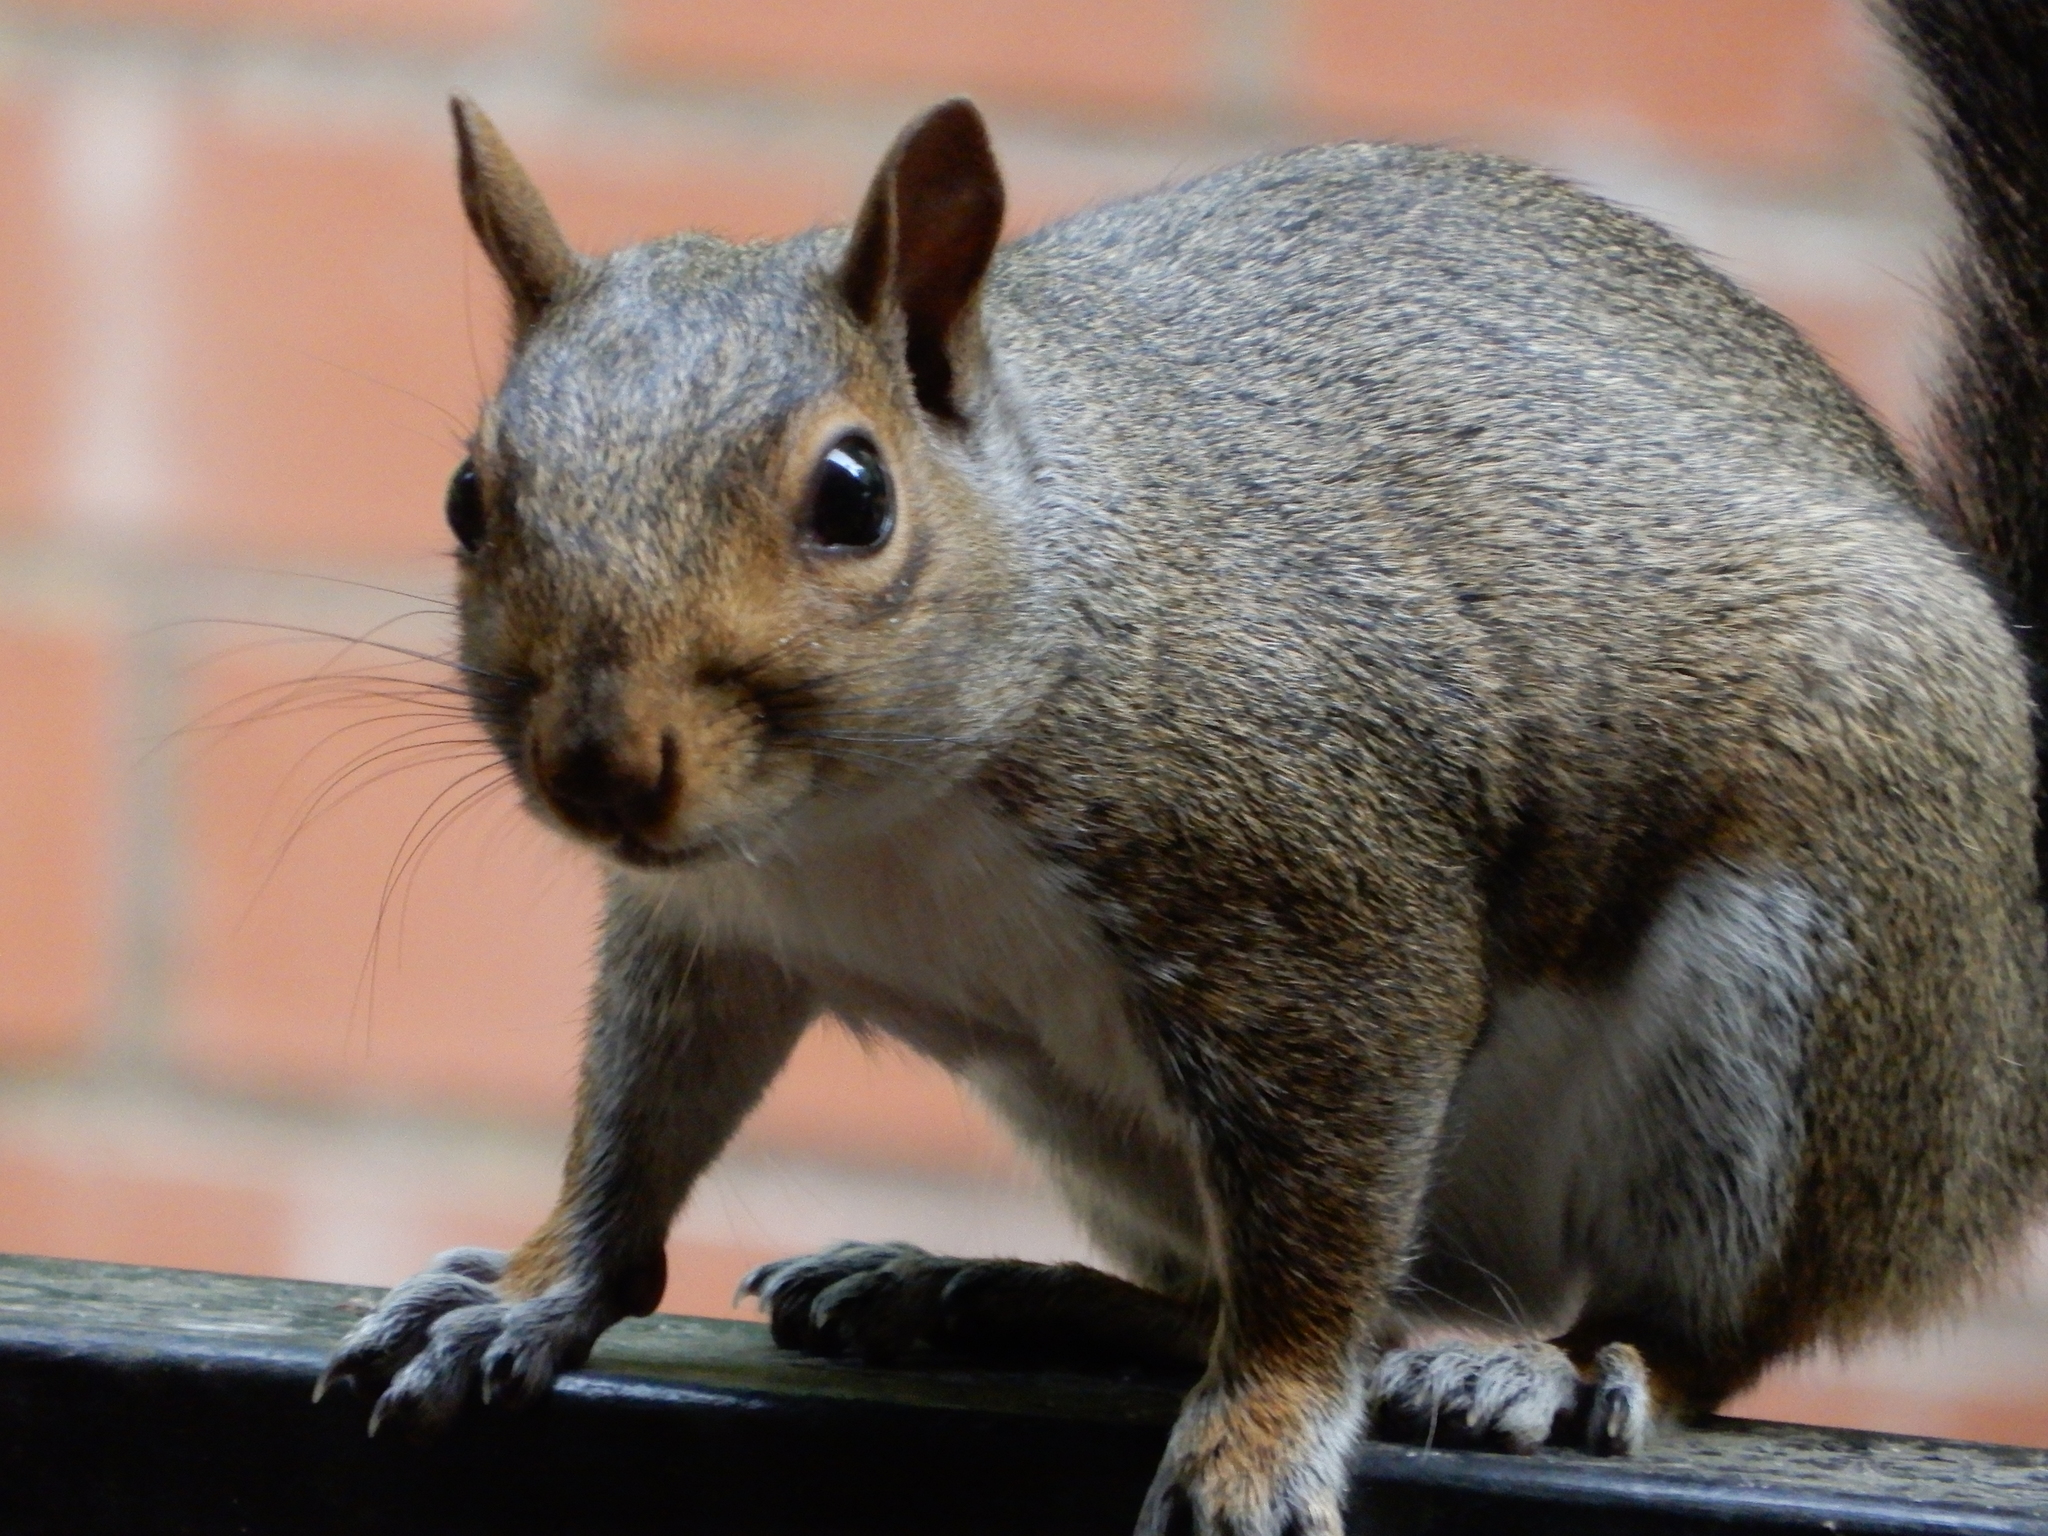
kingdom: Animalia
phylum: Chordata
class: Mammalia
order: Rodentia
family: Sciuridae
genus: Sciurus
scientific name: Sciurus carolinensis
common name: Eastern gray squirrel
